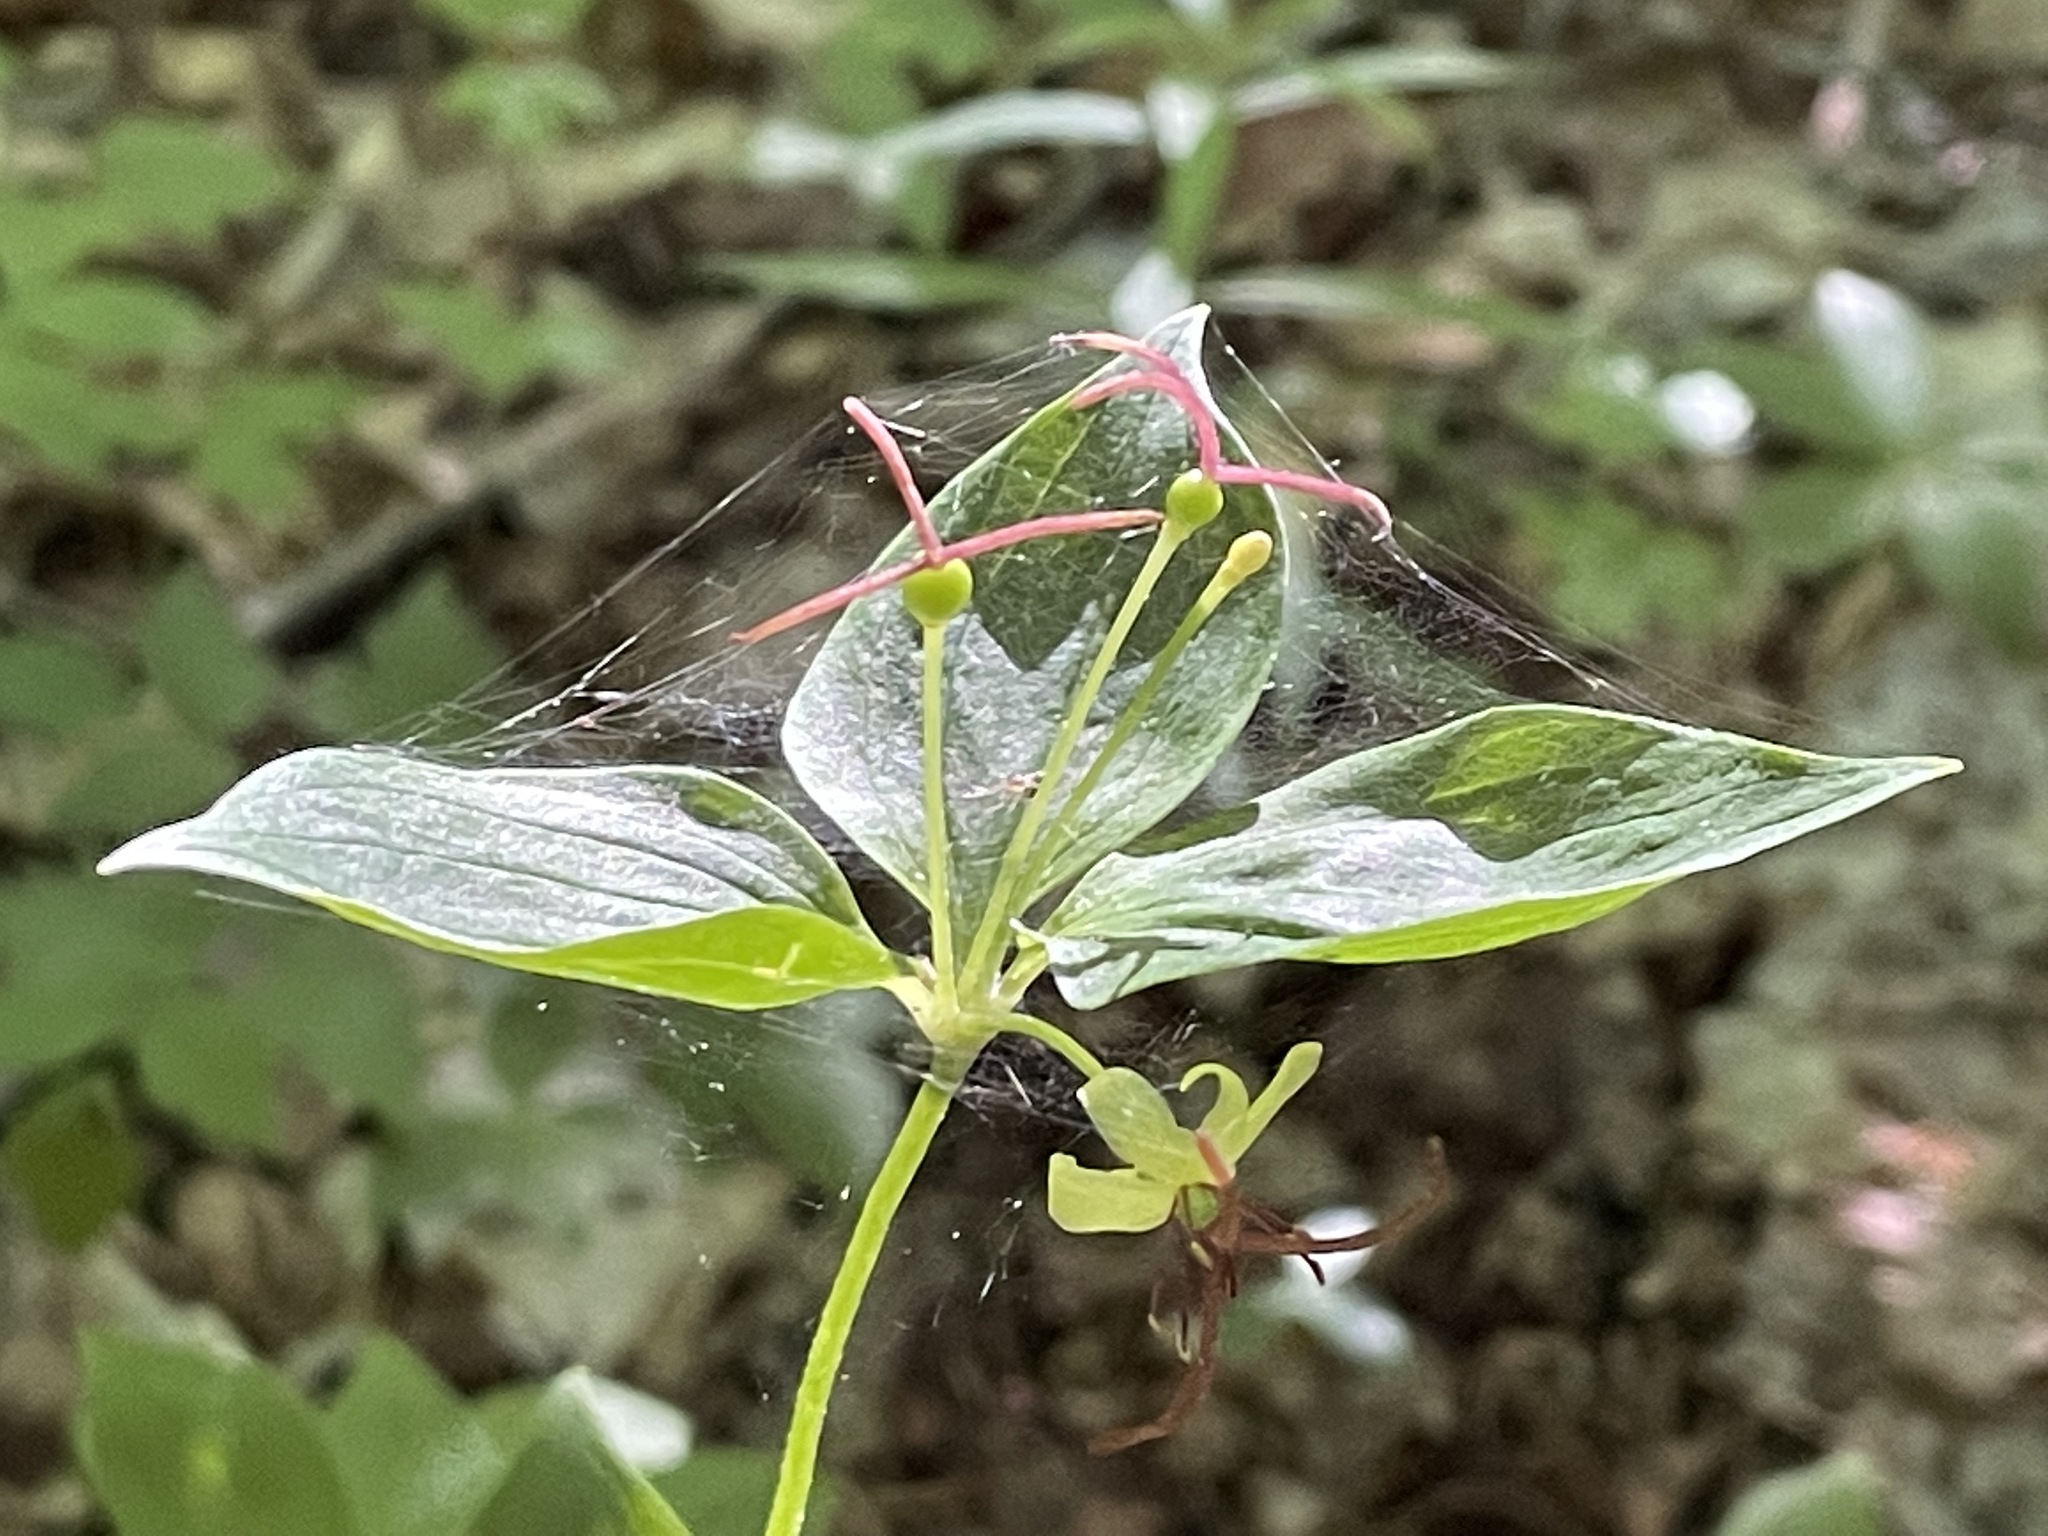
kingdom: Plantae
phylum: Tracheophyta
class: Liliopsida
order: Liliales
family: Liliaceae
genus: Medeola
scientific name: Medeola virginiana
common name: Indian cucumber-root
